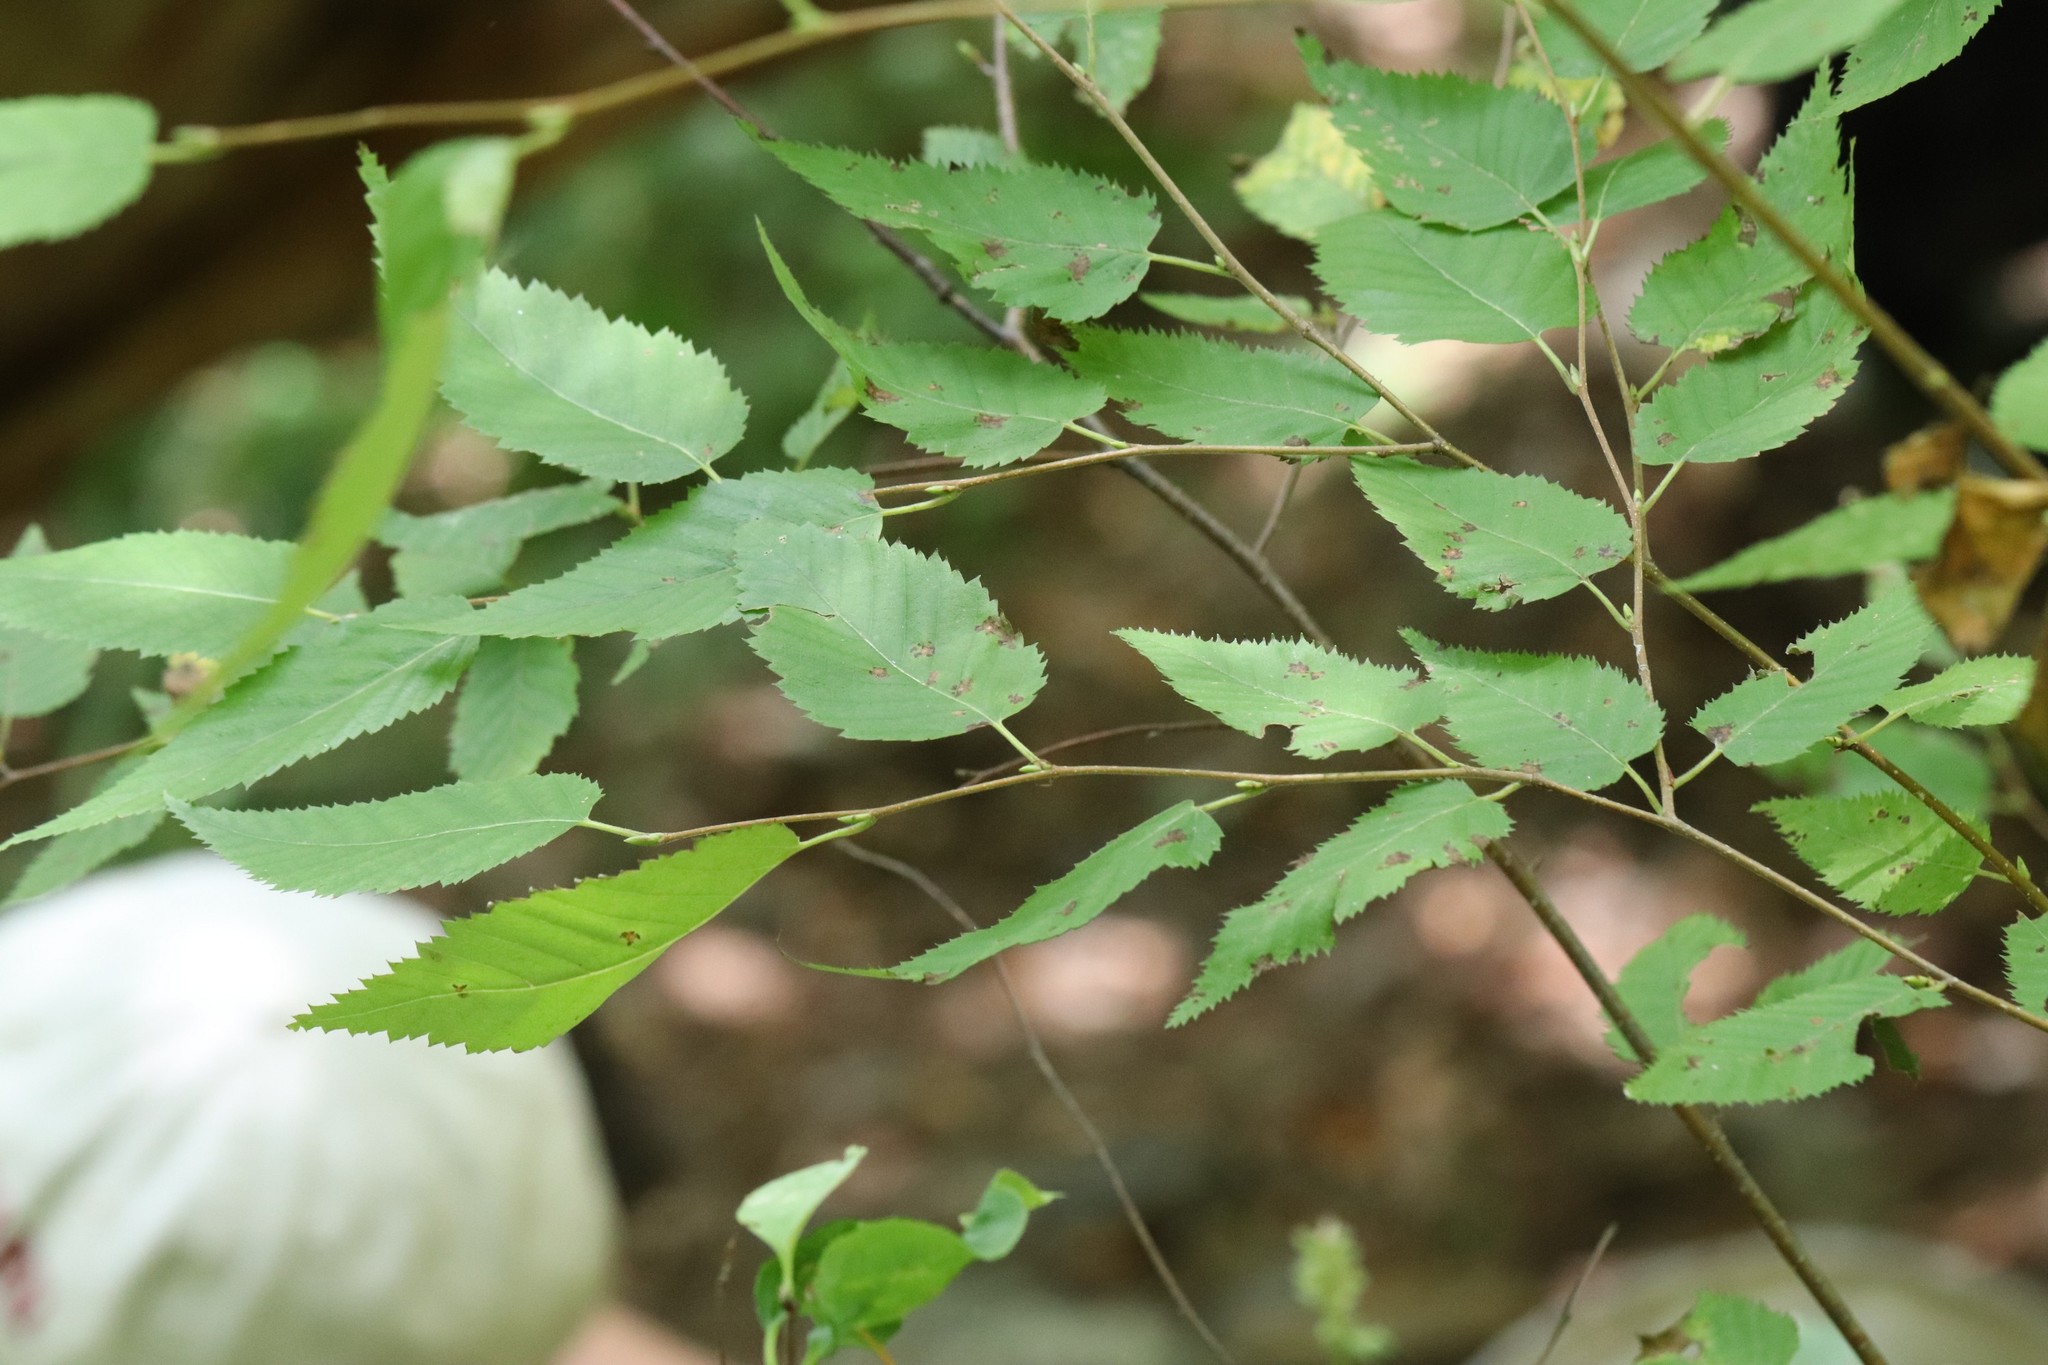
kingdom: Plantae
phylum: Tracheophyta
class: Magnoliopsida
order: Fagales
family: Betulaceae
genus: Betula
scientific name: Betula costata
